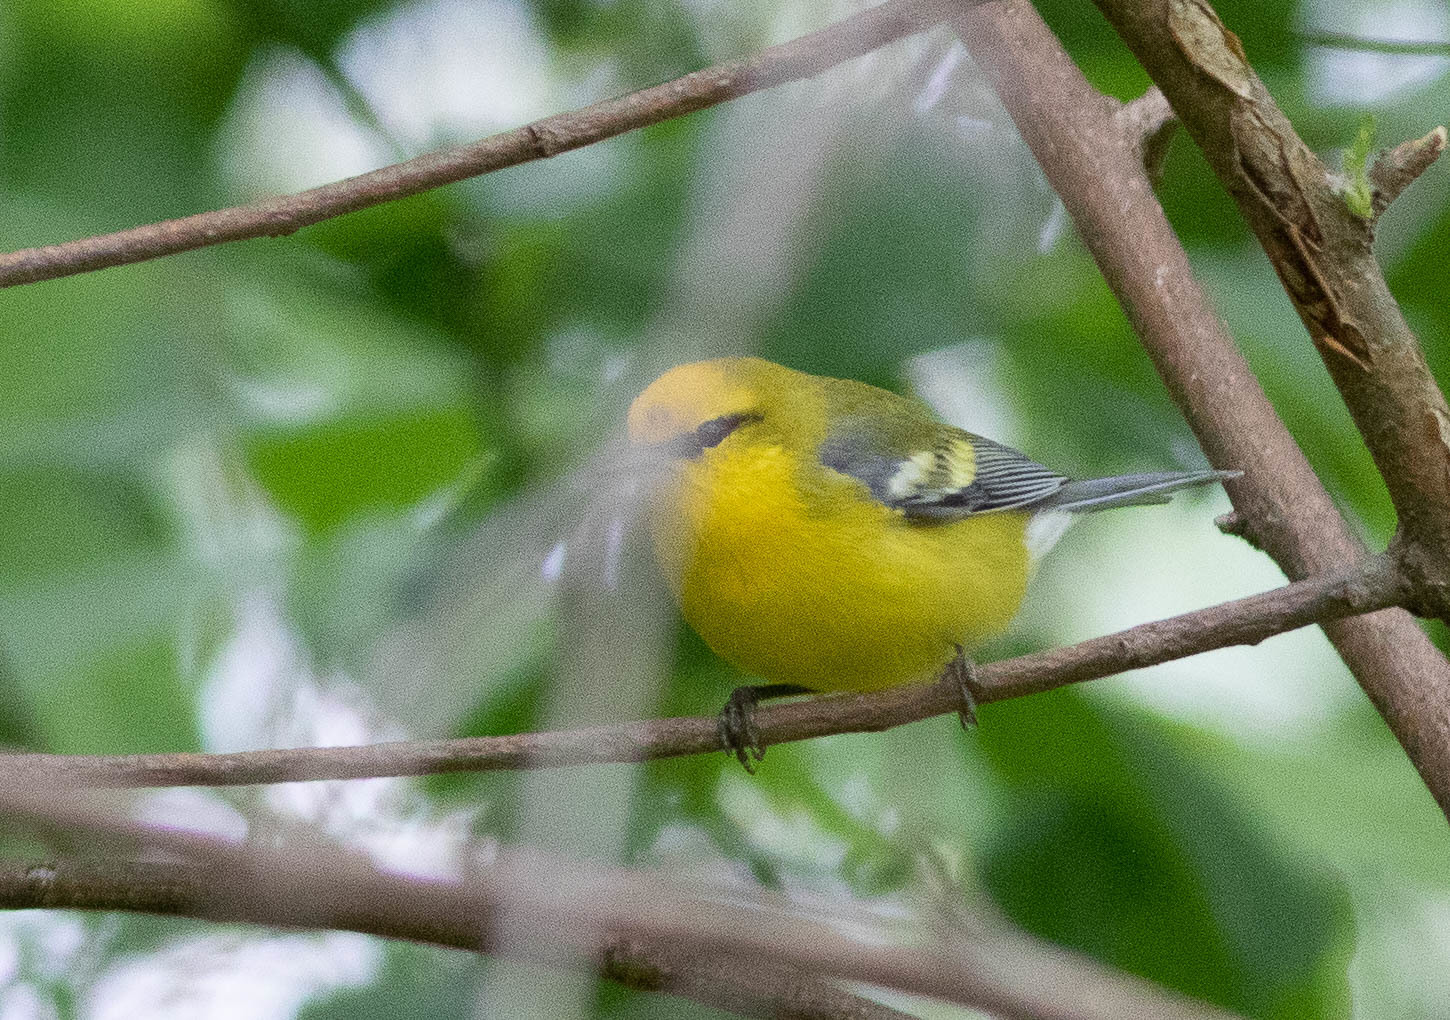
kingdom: Animalia
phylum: Chordata
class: Aves
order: Passeriformes
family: Parulidae
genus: Vermivora
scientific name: Vermivora cyanoptera
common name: Blue-winged warbler
